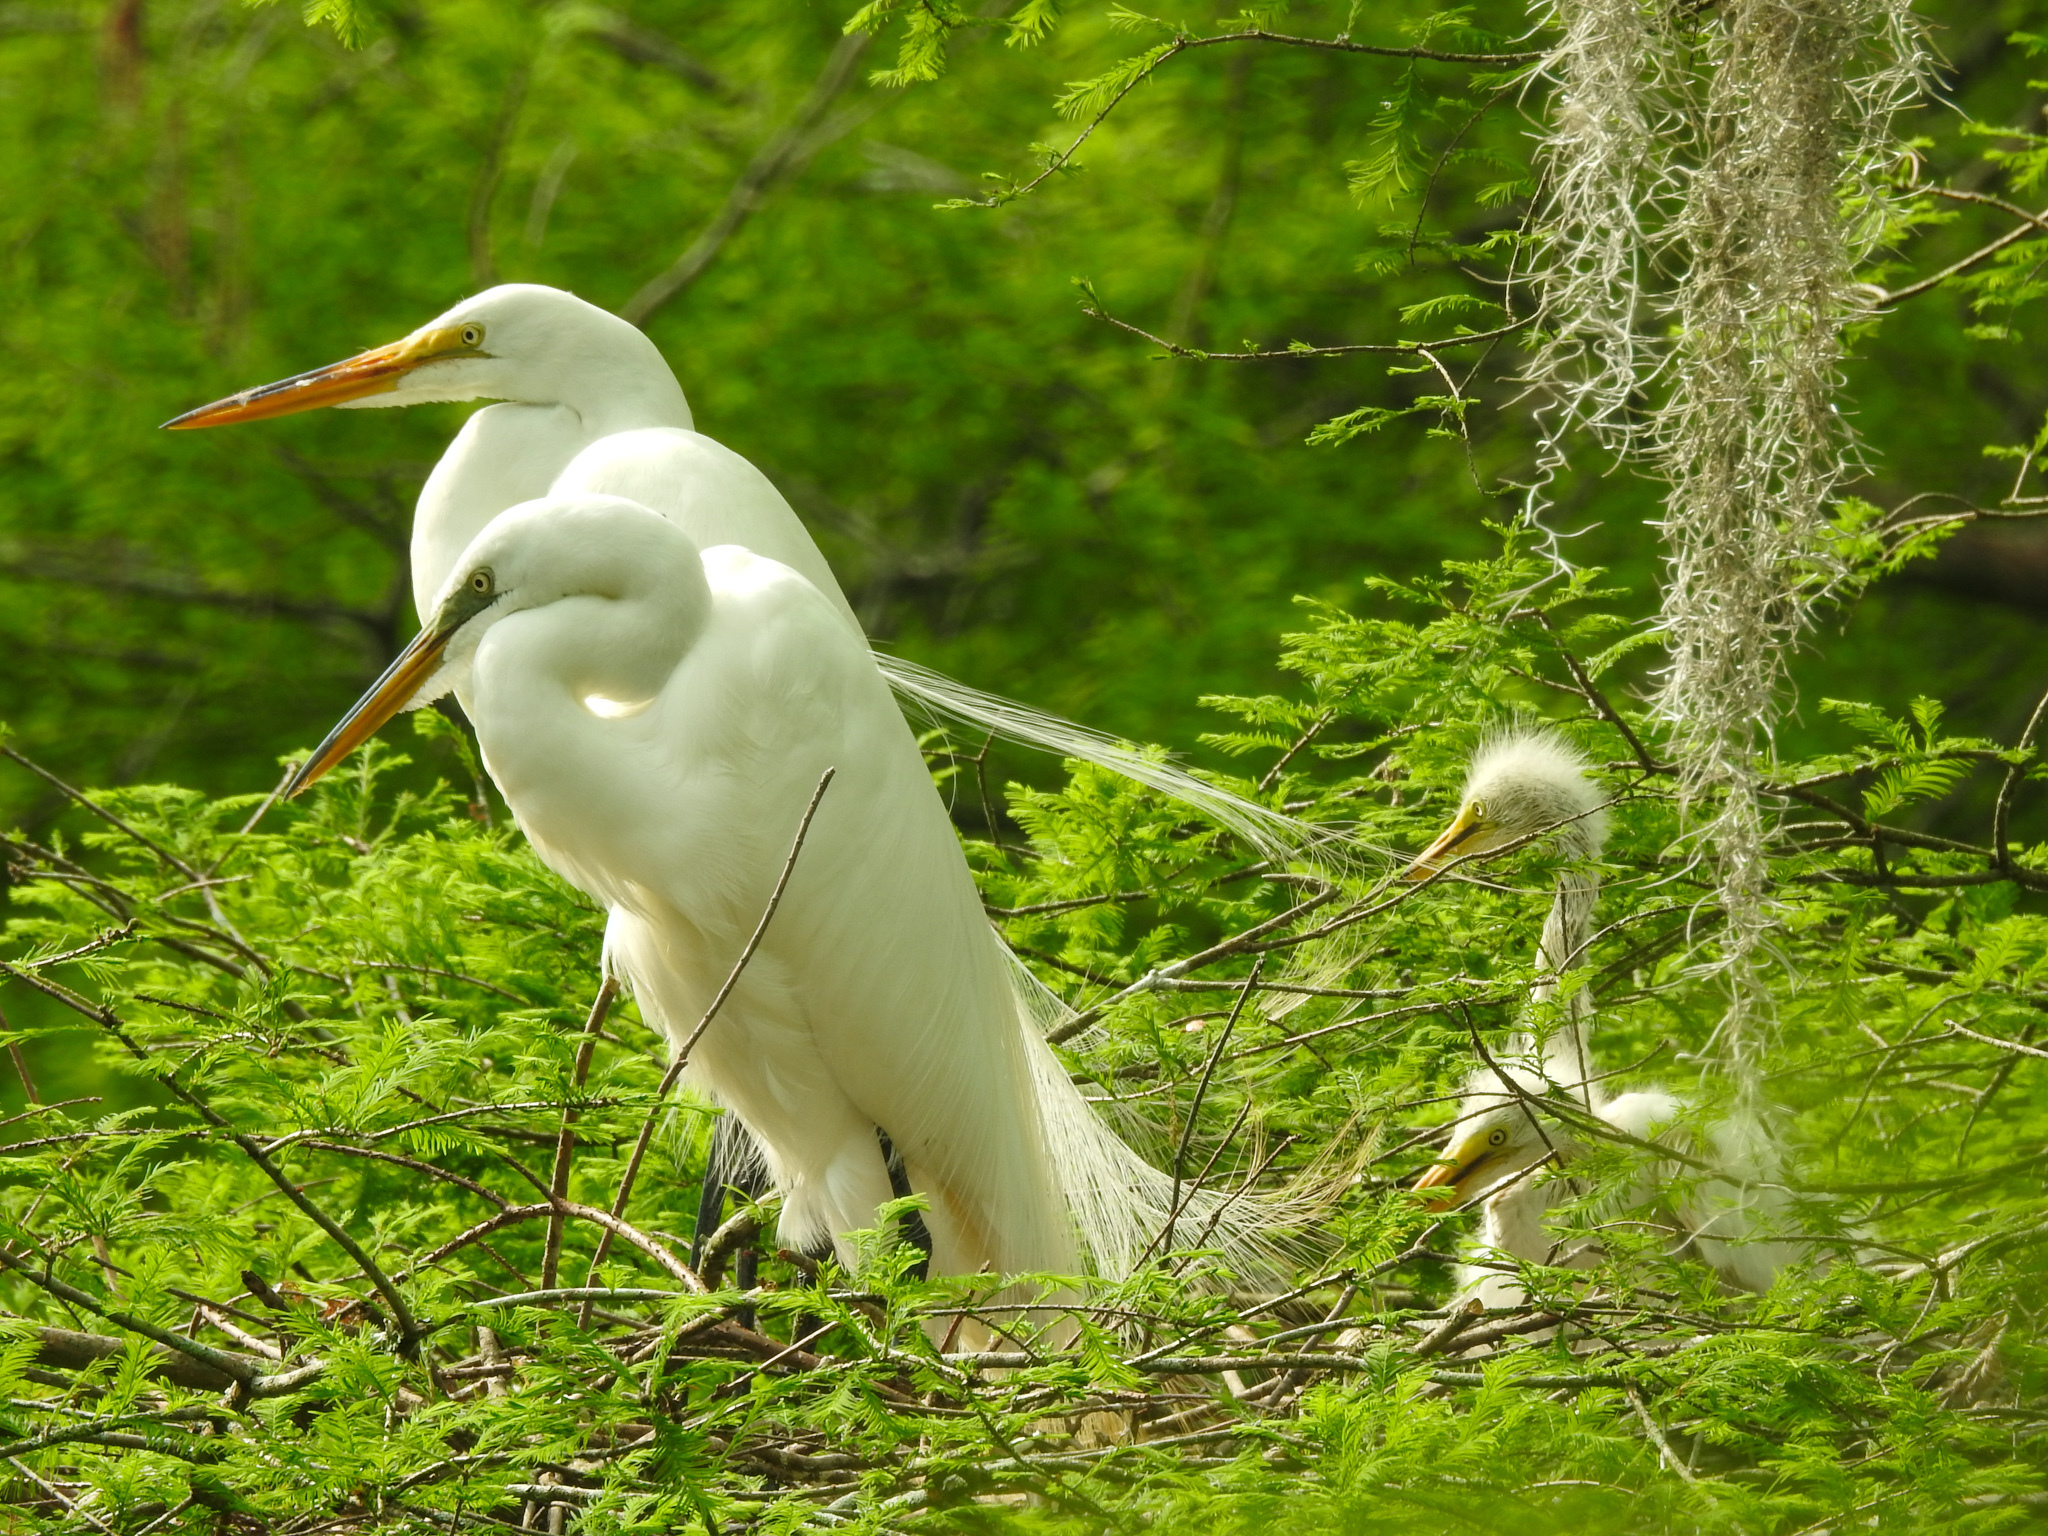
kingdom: Animalia
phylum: Chordata
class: Aves
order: Pelecaniformes
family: Ardeidae
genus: Ardea
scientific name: Ardea alba
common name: Great egret
